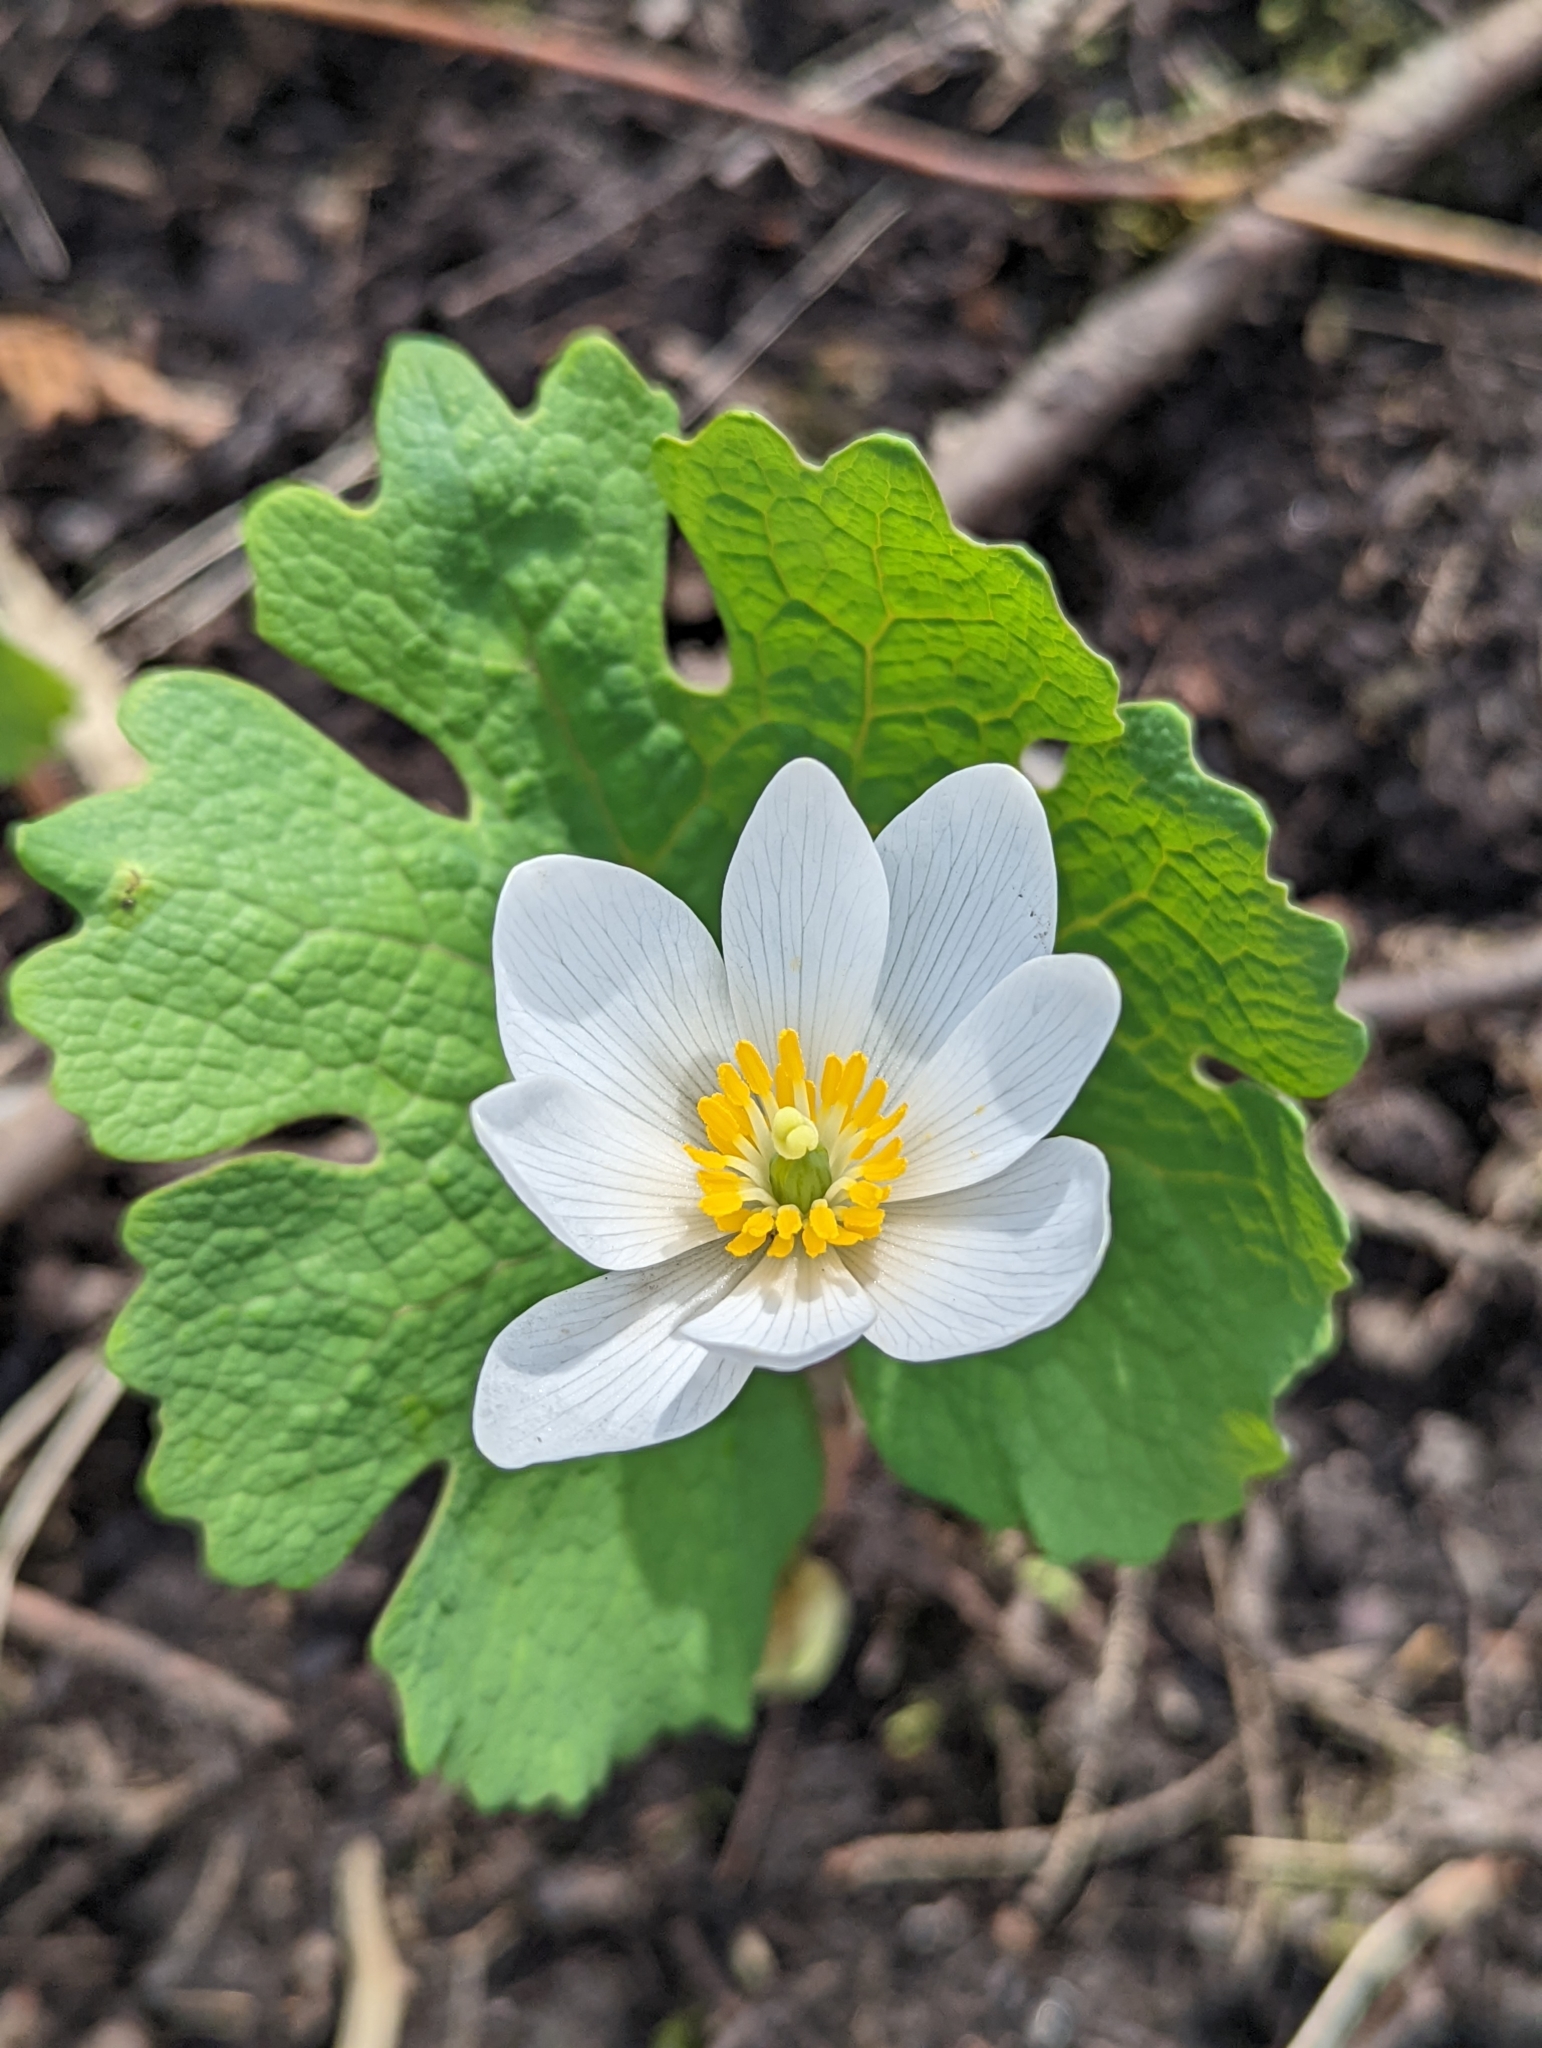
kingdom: Plantae
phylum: Tracheophyta
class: Magnoliopsida
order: Ranunculales
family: Papaveraceae
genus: Sanguinaria
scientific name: Sanguinaria canadensis
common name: Bloodroot
